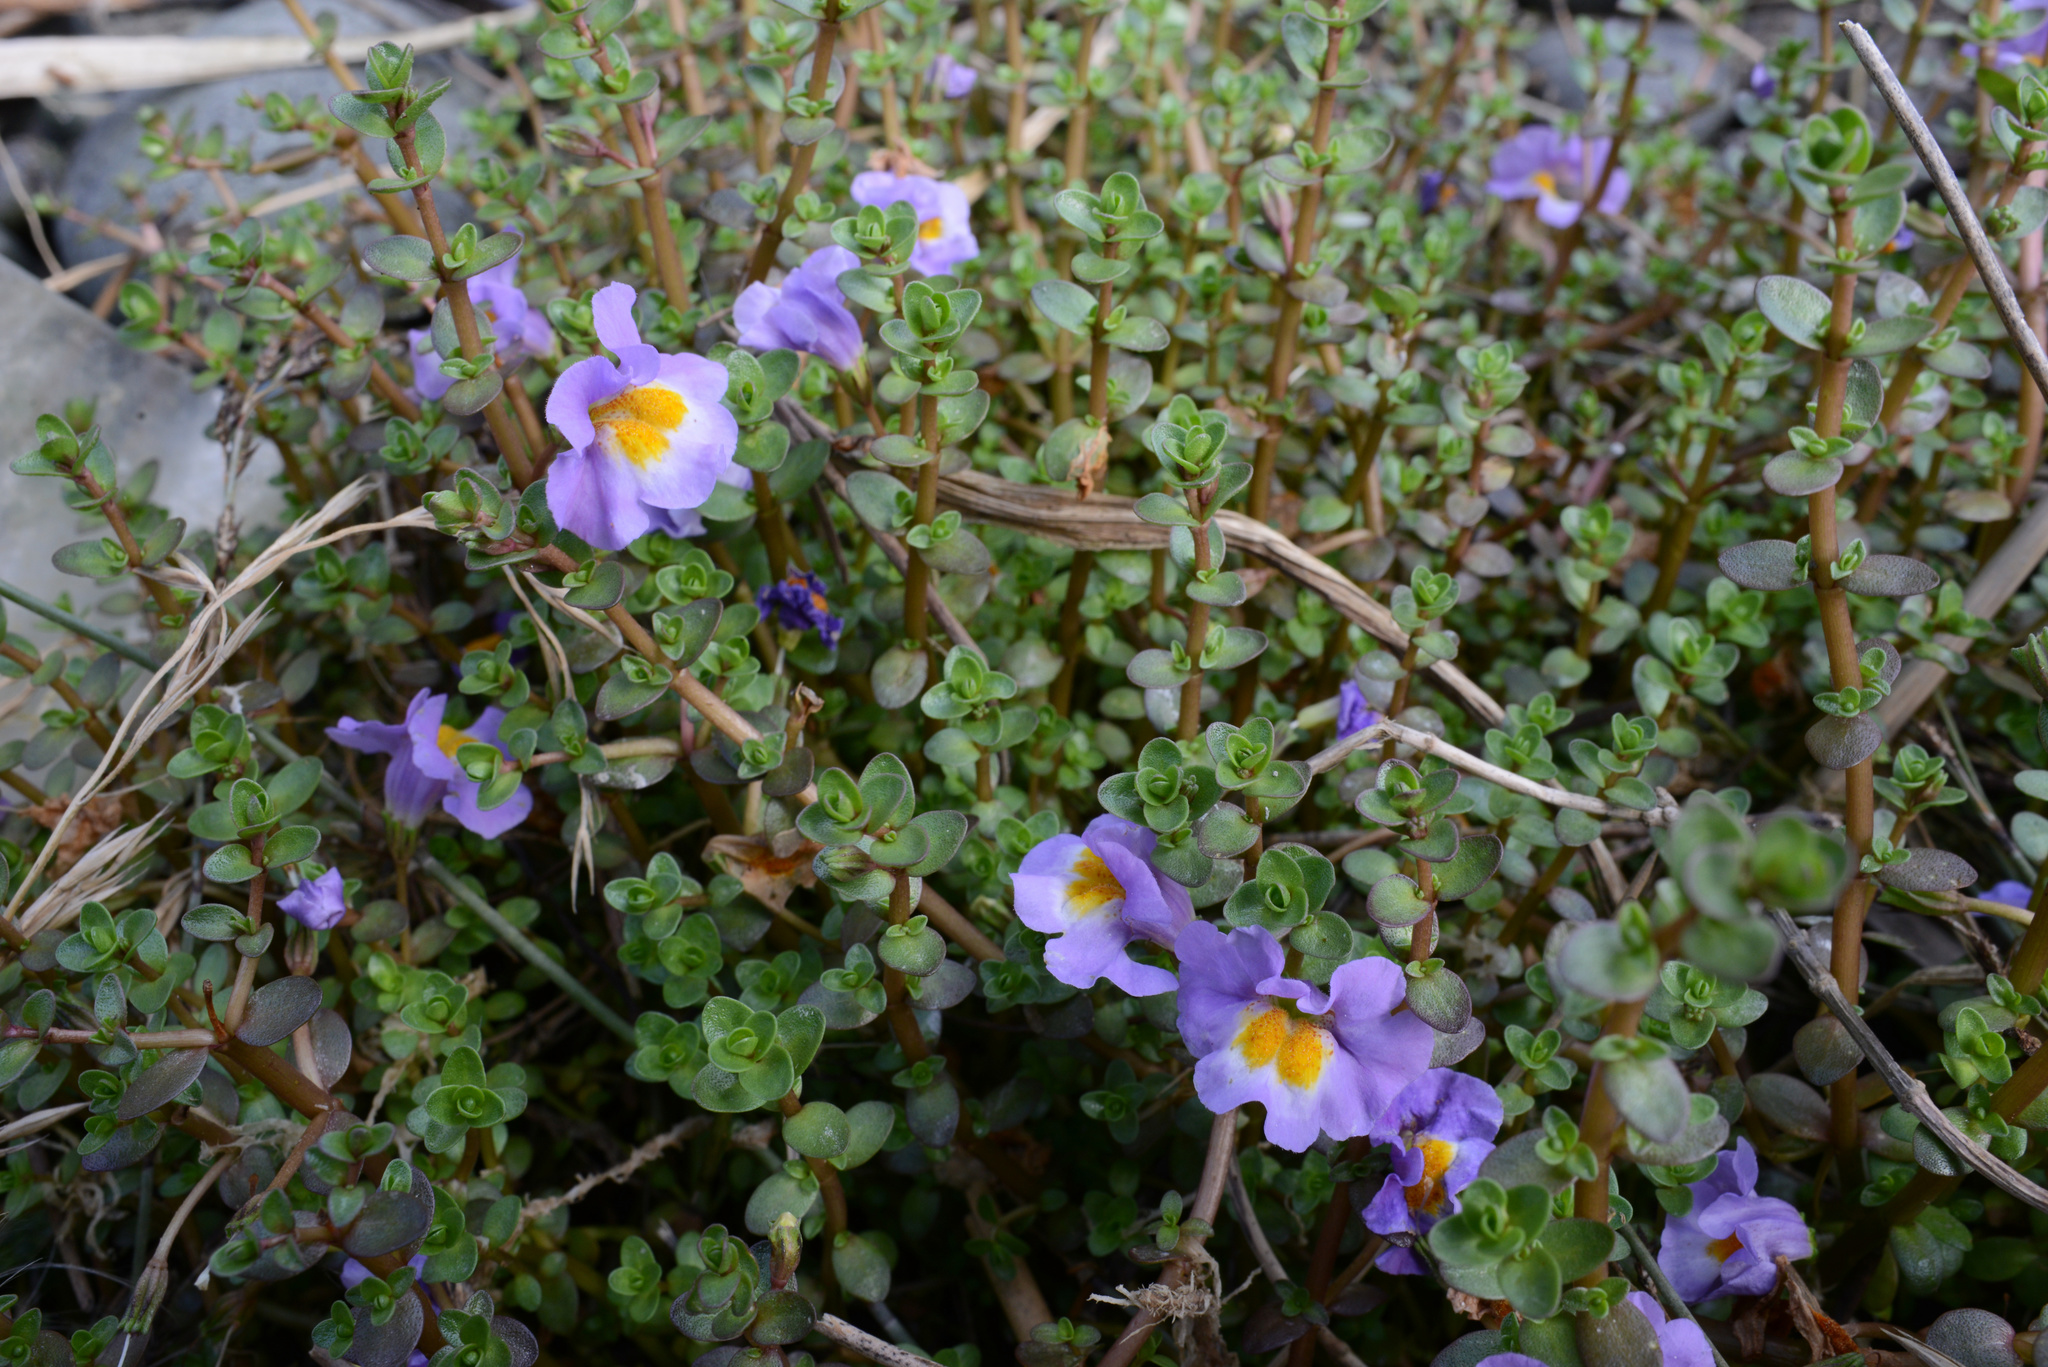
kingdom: Plantae
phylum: Tracheophyta
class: Magnoliopsida
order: Lamiales
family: Phrymaceae
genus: Thyridia
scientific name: Thyridia repens
